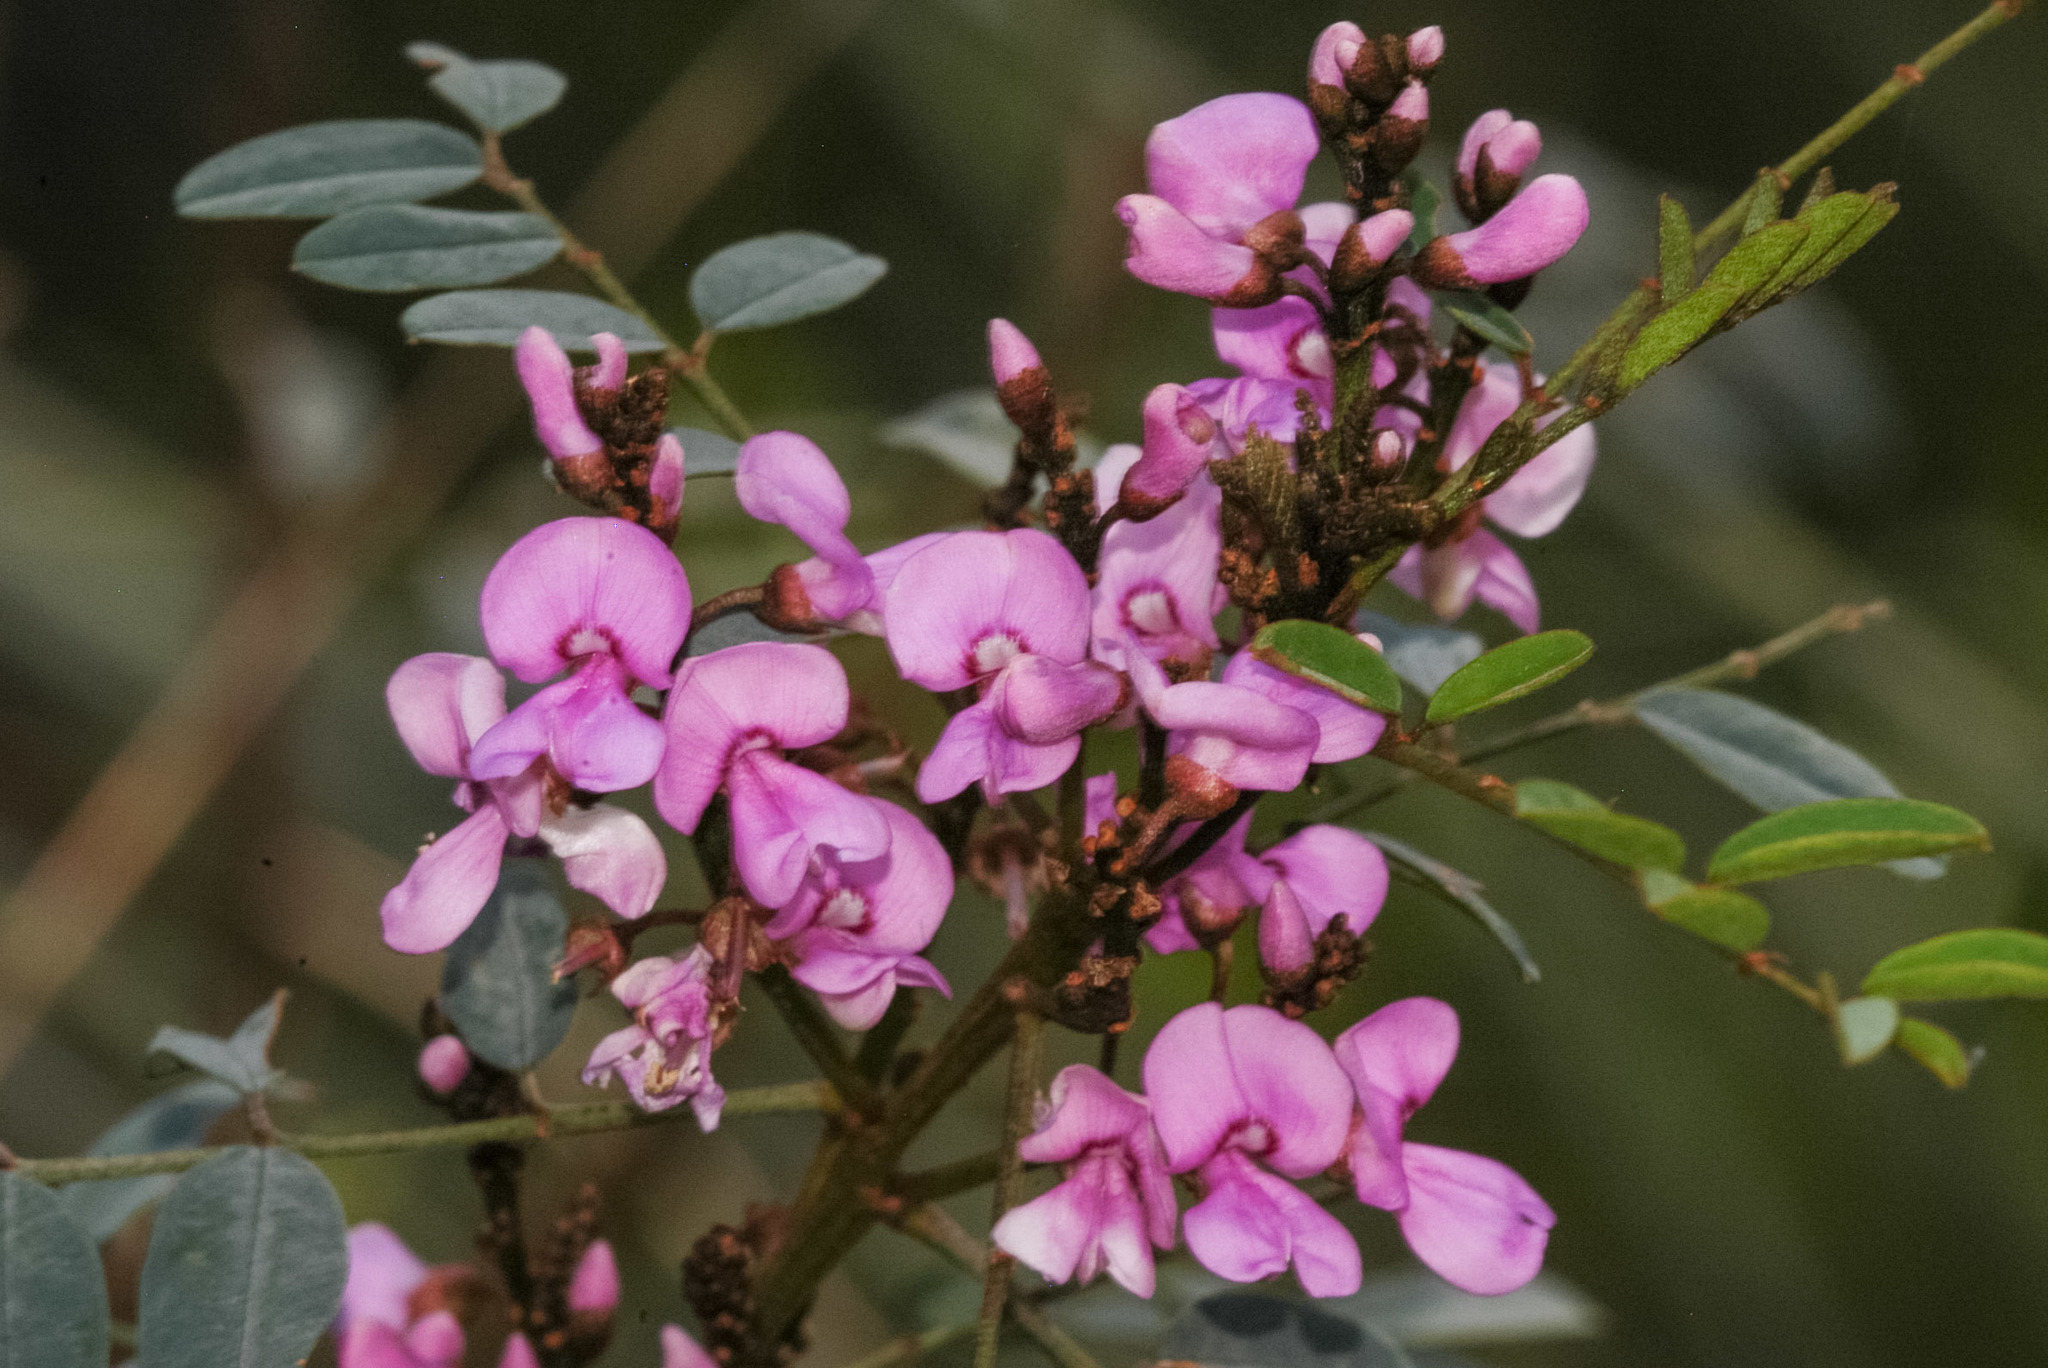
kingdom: Plantae
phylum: Tracheophyta
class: Magnoliopsida
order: Fabales
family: Fabaceae
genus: Indigofera
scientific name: Indigofera australis
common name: Australian indigo
